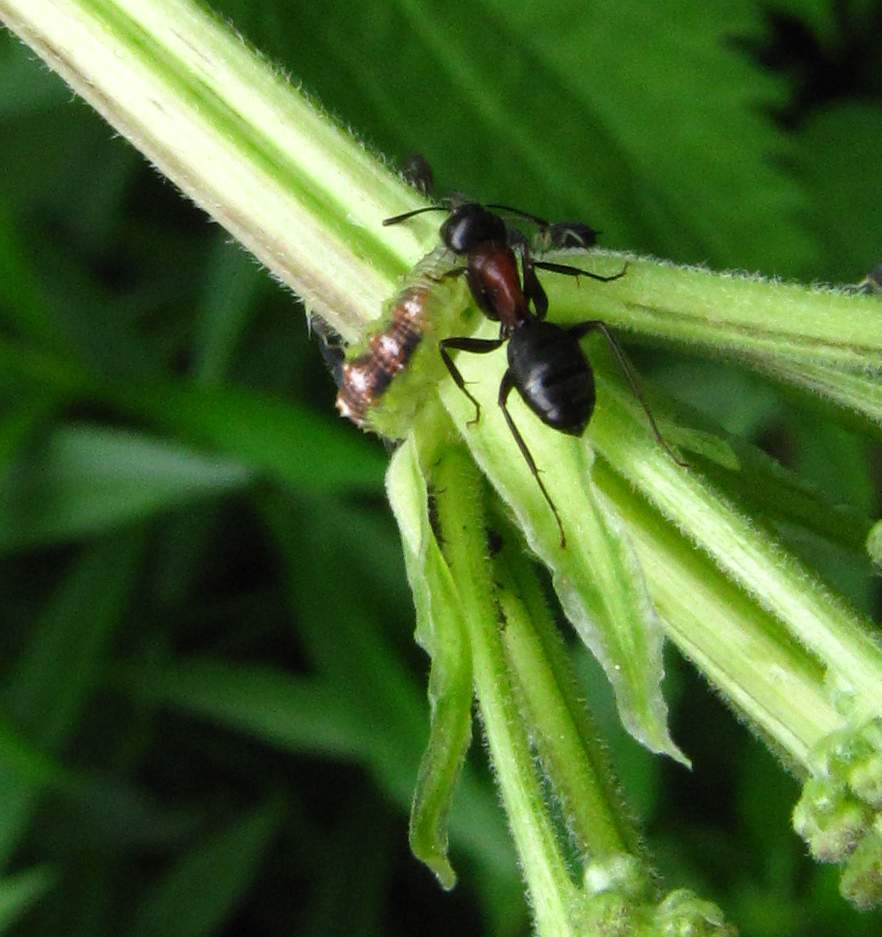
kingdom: Animalia
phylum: Arthropoda
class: Insecta
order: Diptera
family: Syrphidae
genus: Eupeodes
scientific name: Eupeodes pomus
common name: Short-tailed aphideater
